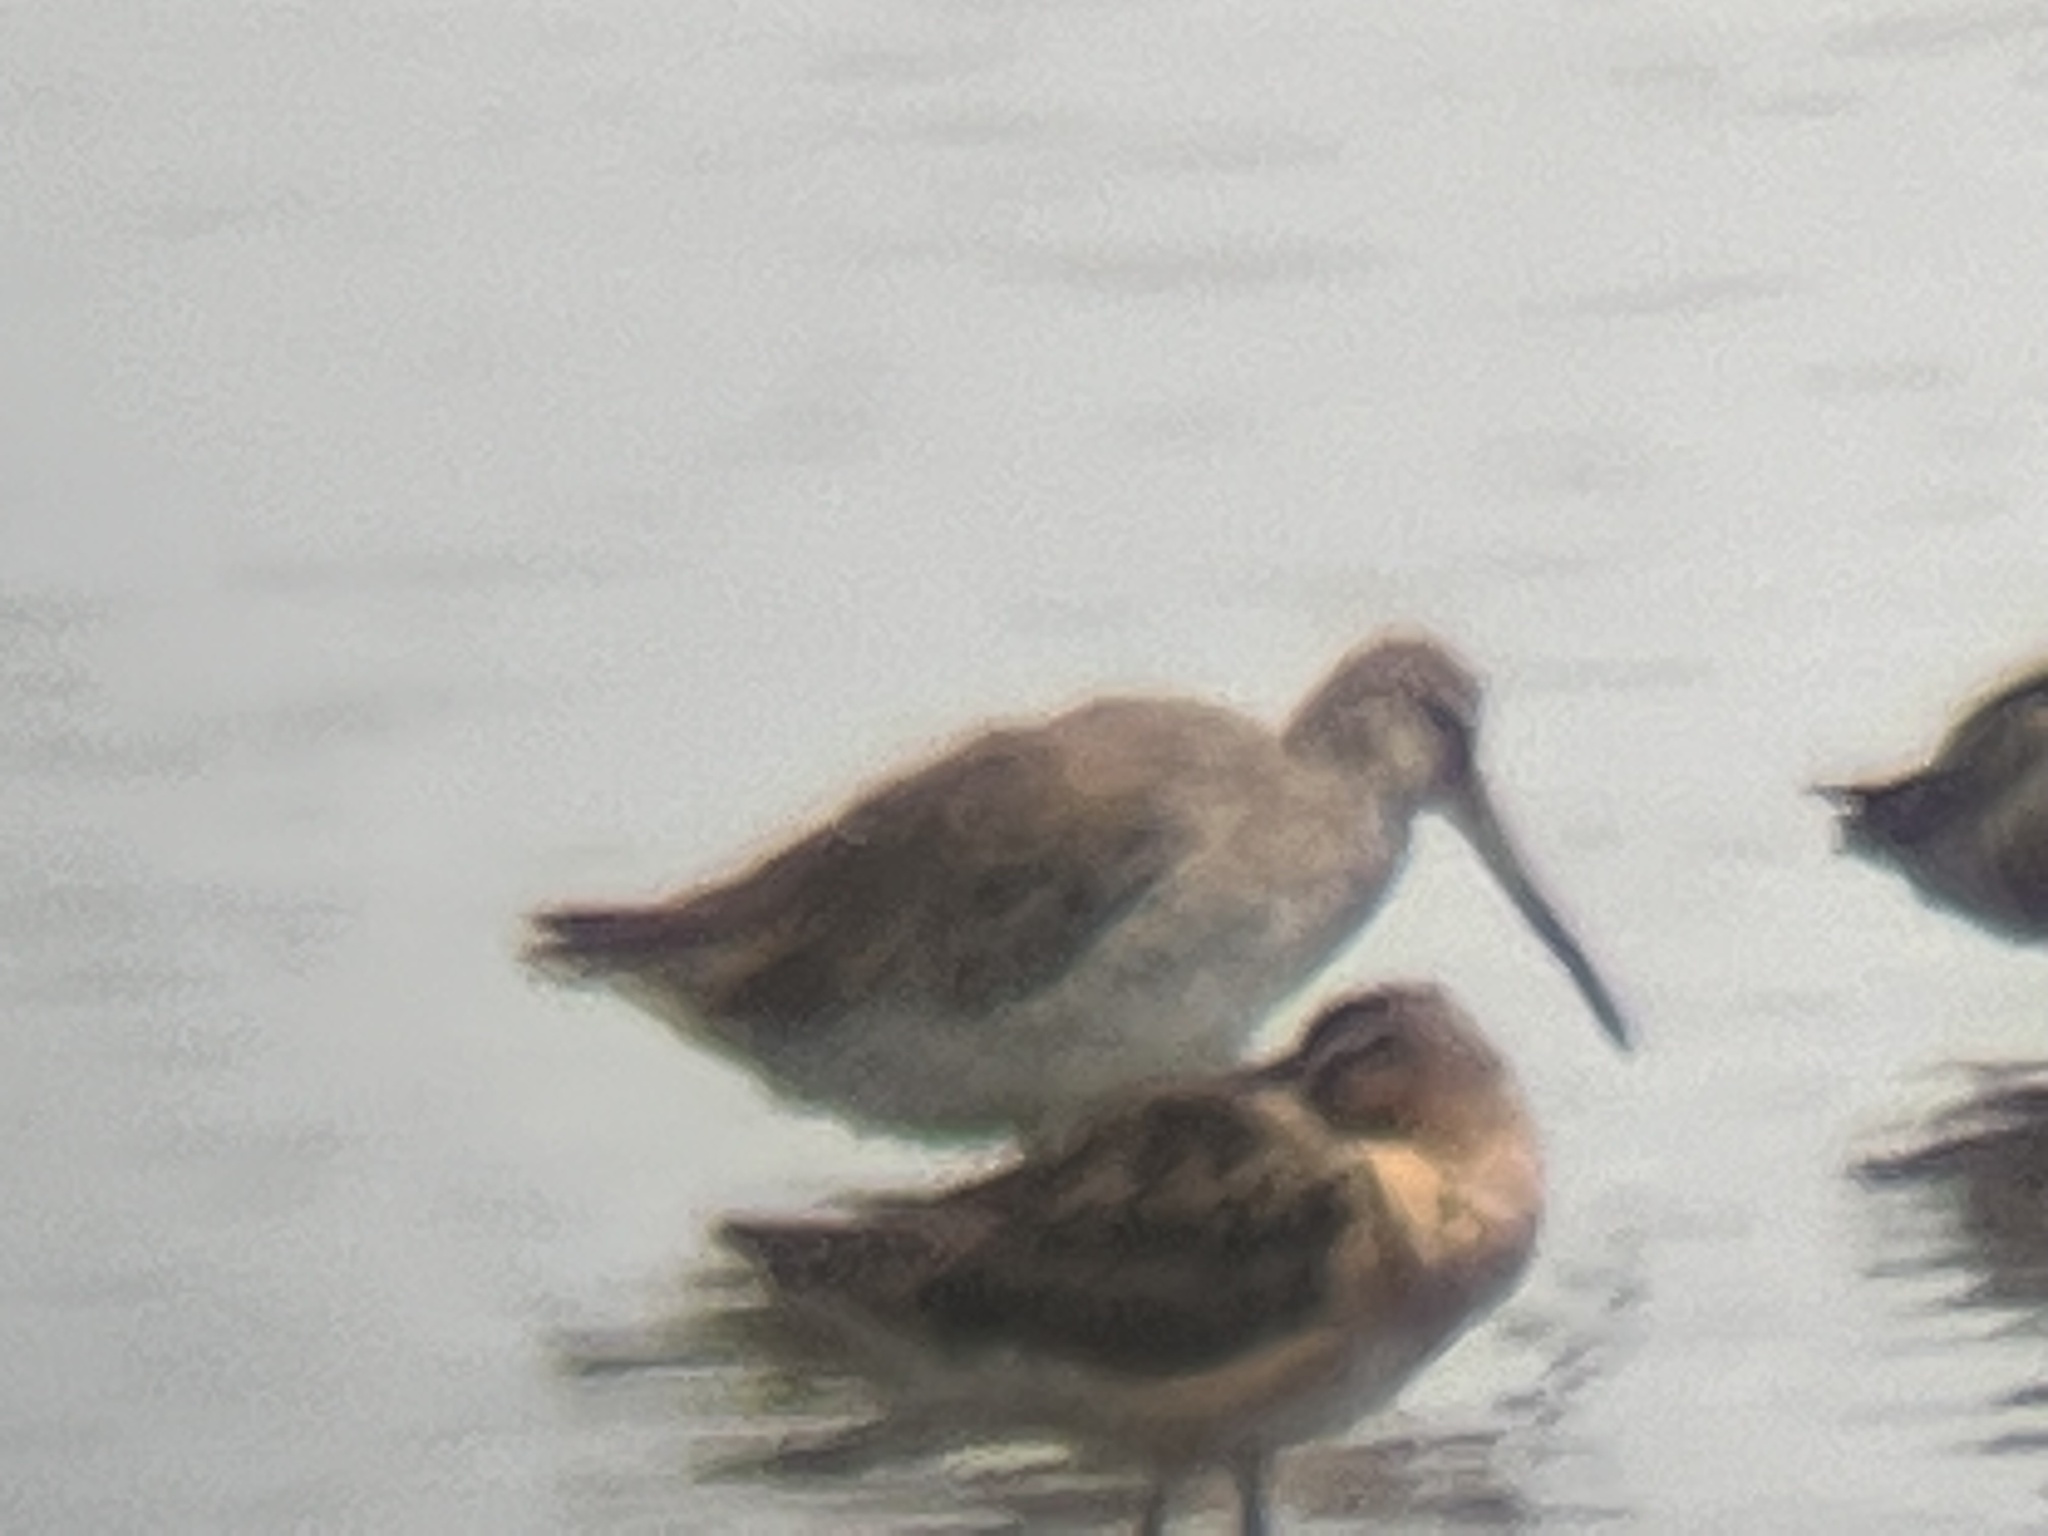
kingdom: Animalia
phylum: Chordata
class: Aves
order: Charadriiformes
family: Scolopacidae
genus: Limnodromus
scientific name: Limnodromus scolopaceus
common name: Long-billed dowitcher
